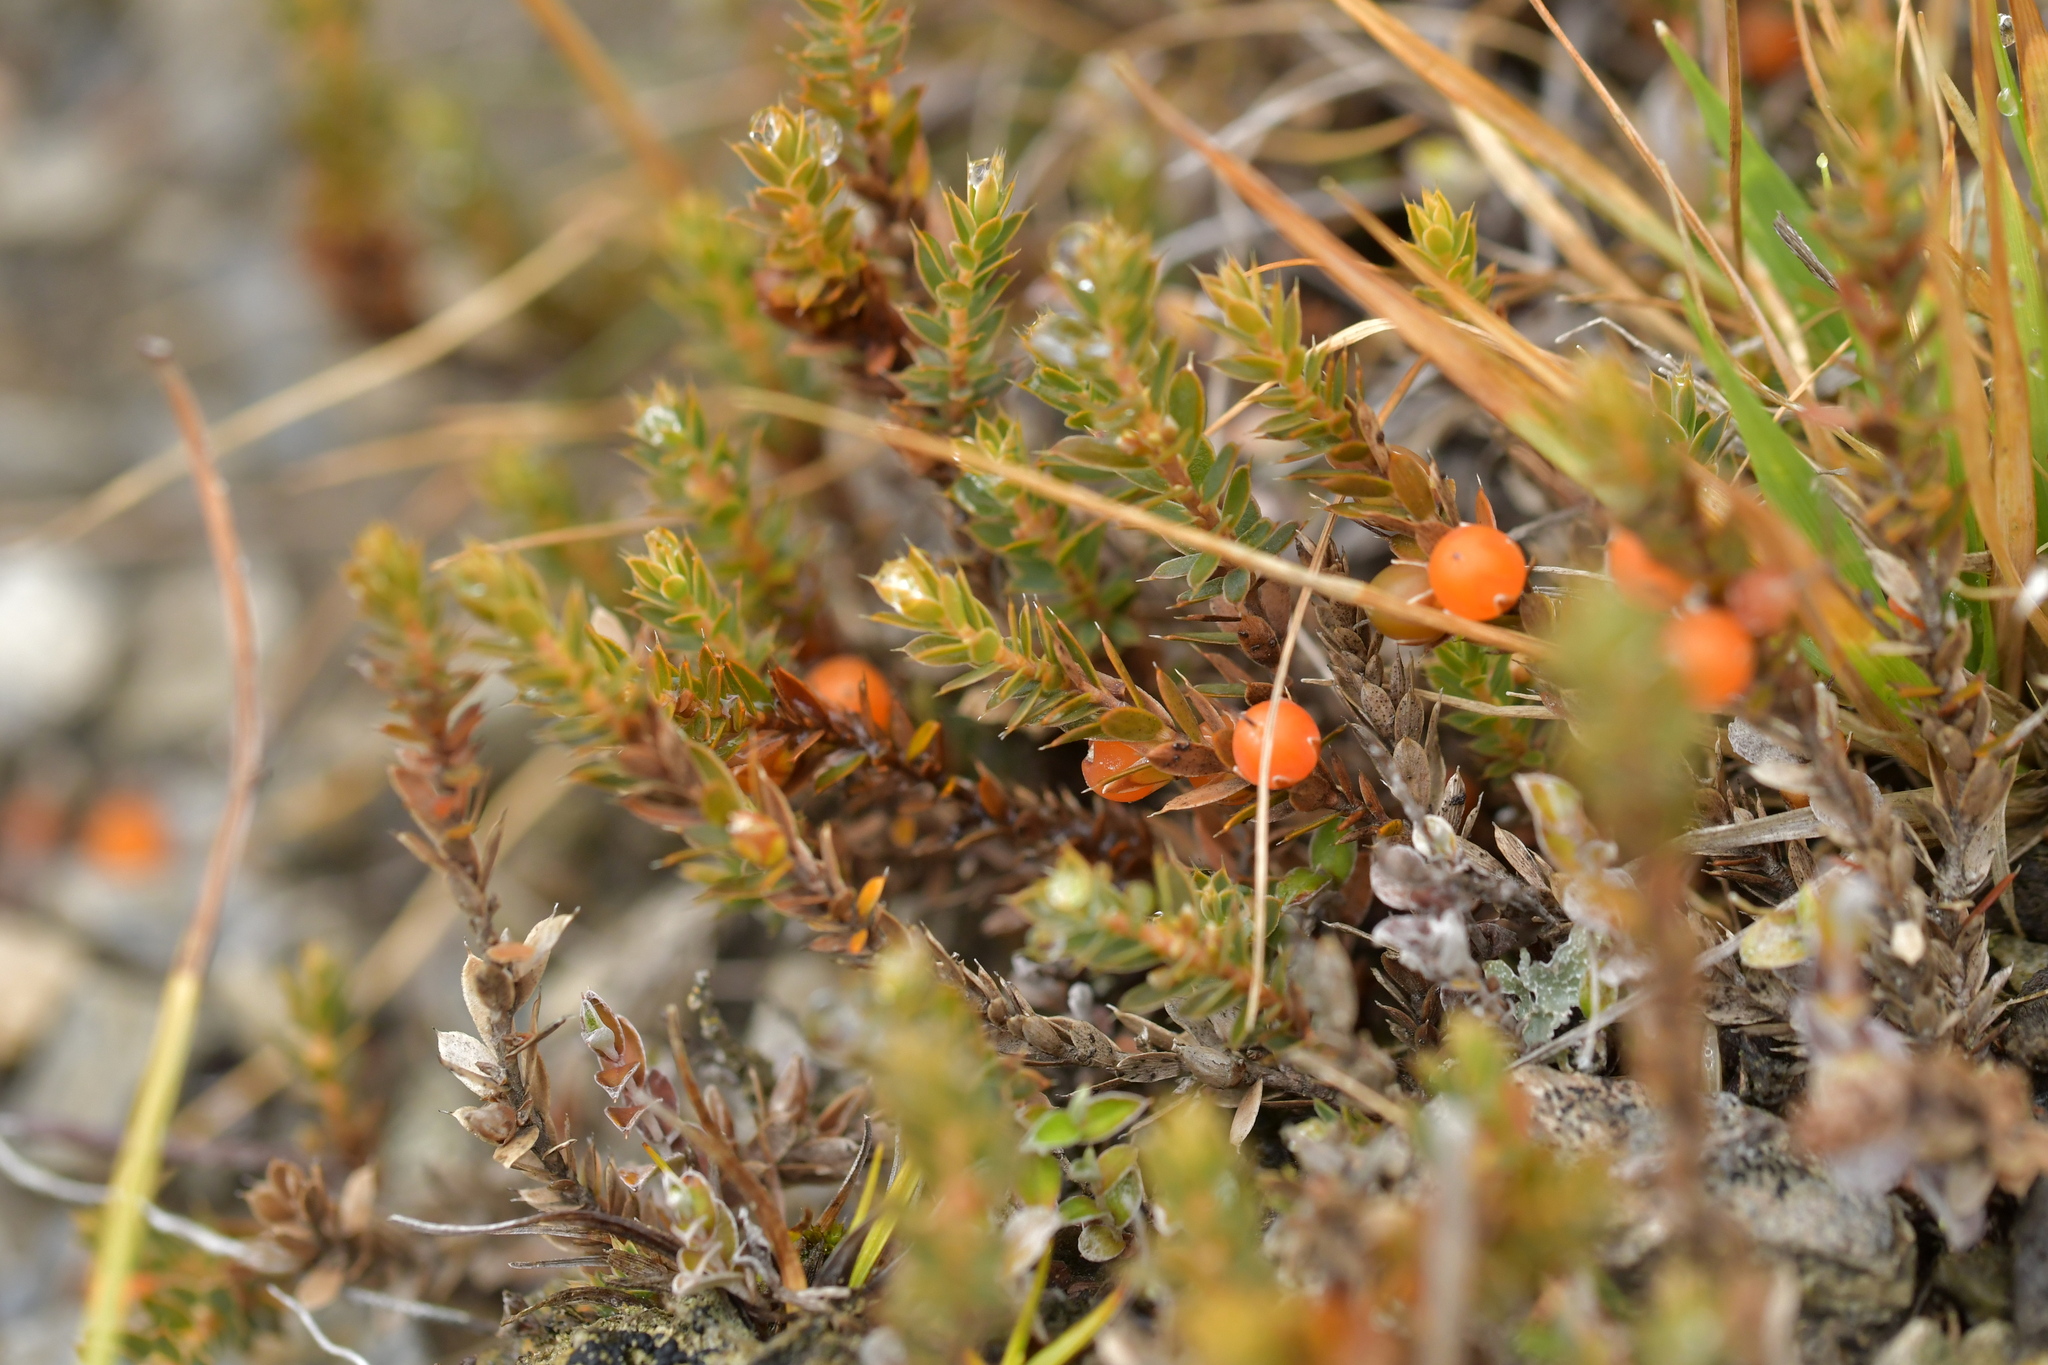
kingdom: Plantae
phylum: Tracheophyta
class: Magnoliopsida
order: Ericales
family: Ericaceae
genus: Styphelia
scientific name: Styphelia nesophila
